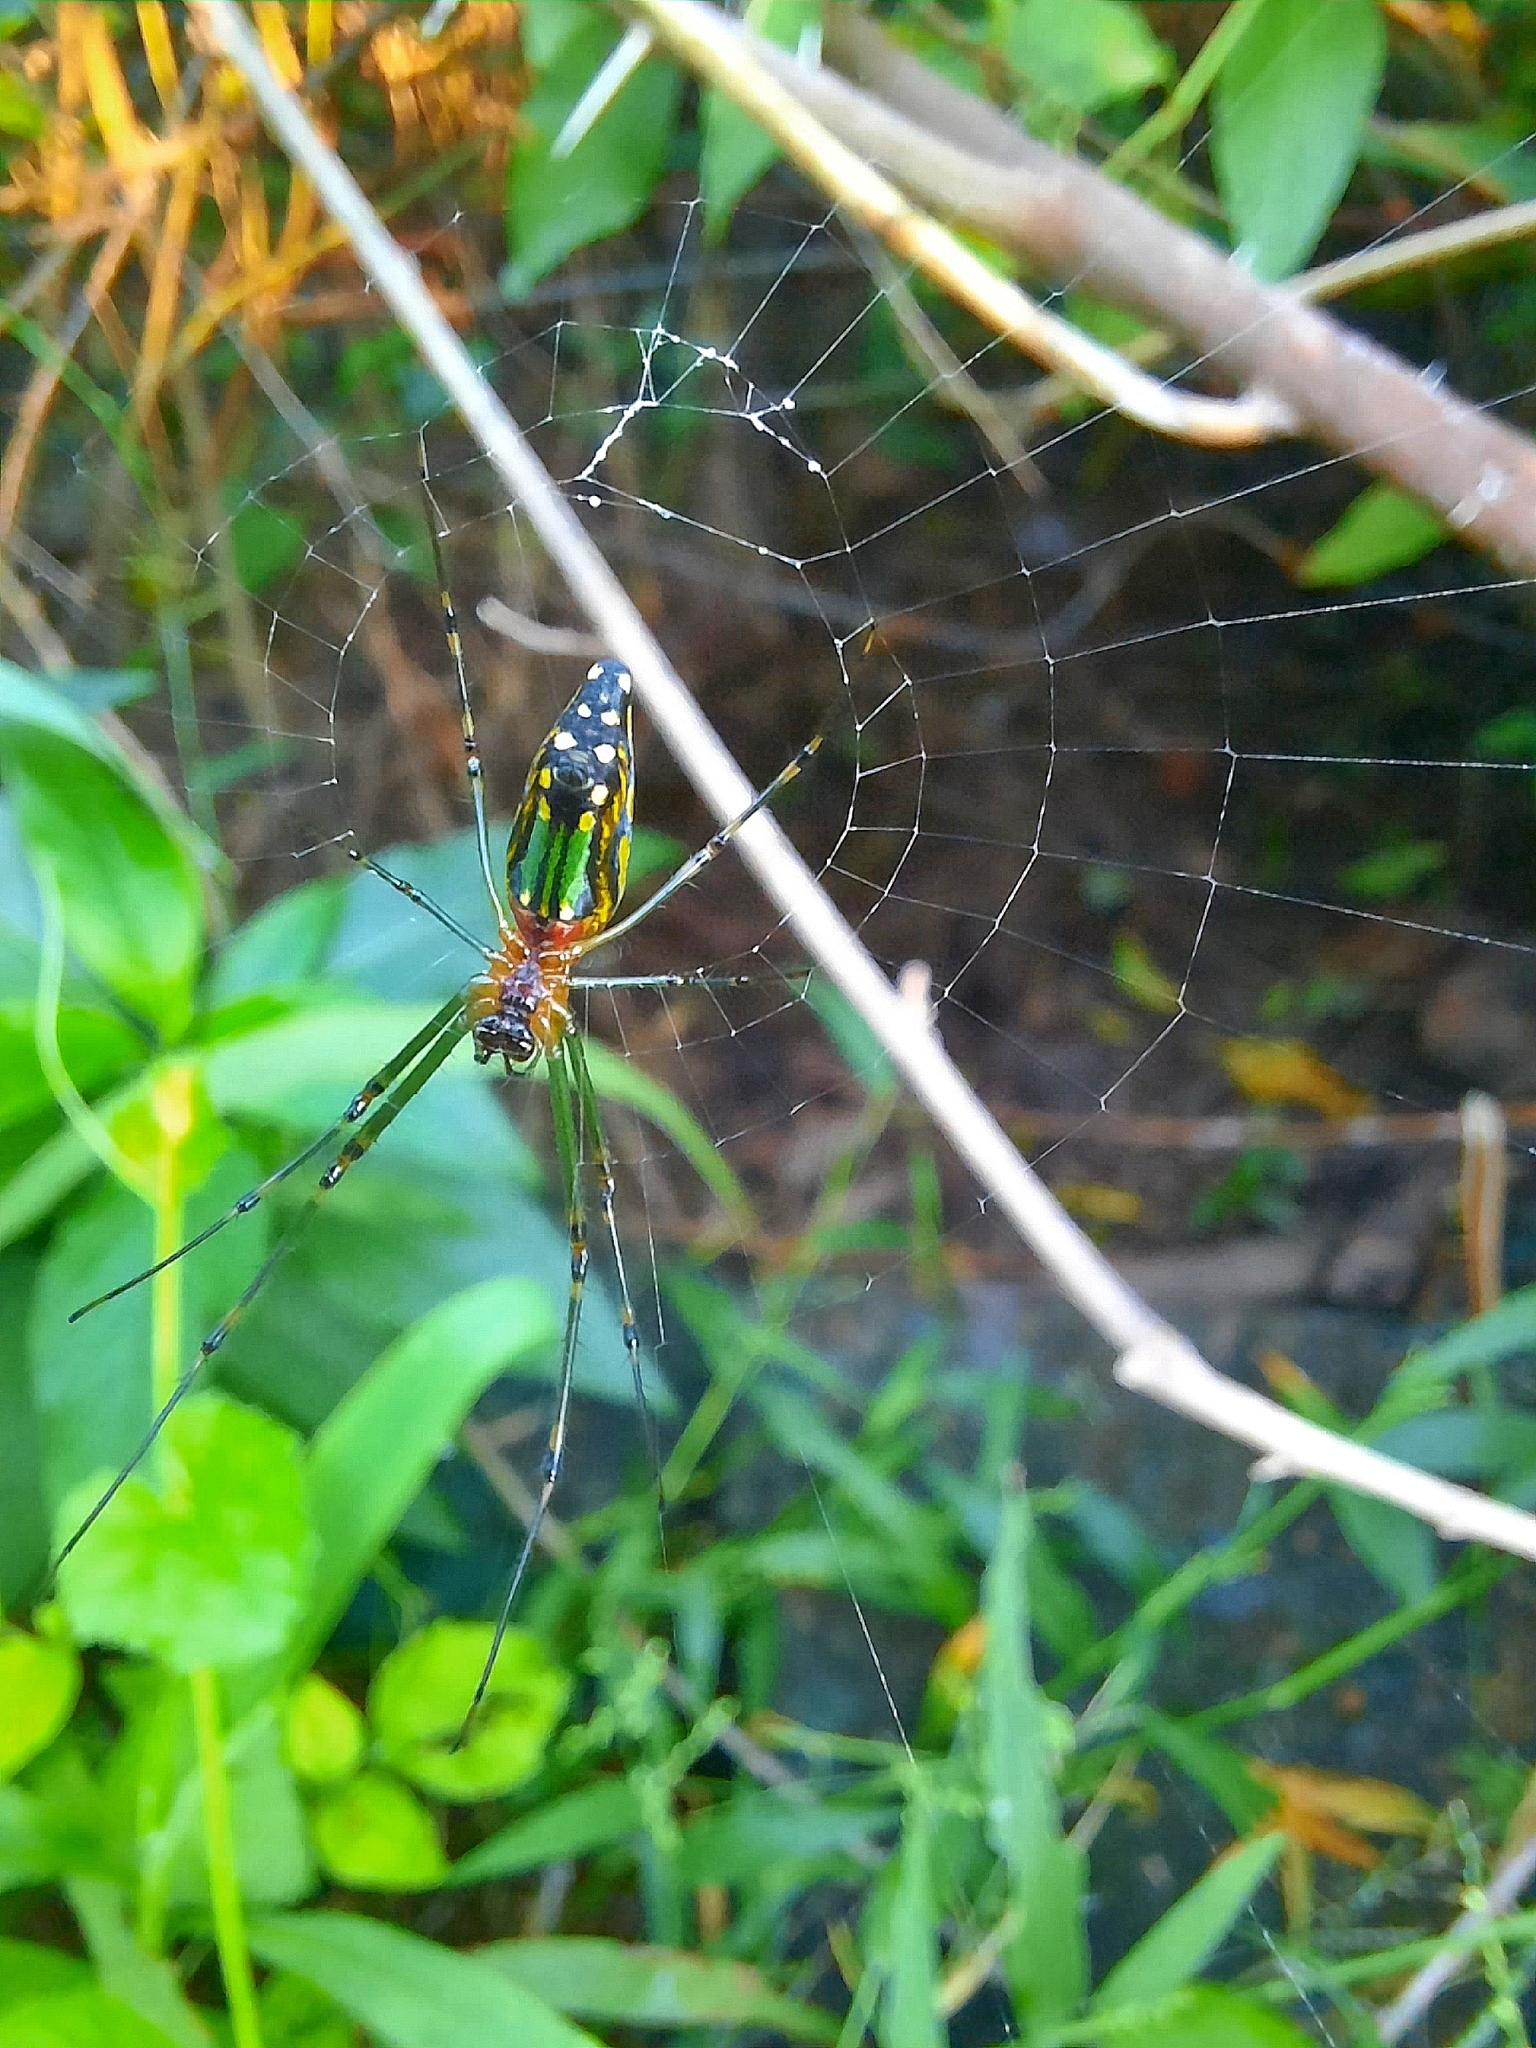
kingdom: Animalia
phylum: Arthropoda
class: Arachnida
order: Araneae
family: Tetragnathidae
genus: Leucauge
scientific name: Leucauge decorata
